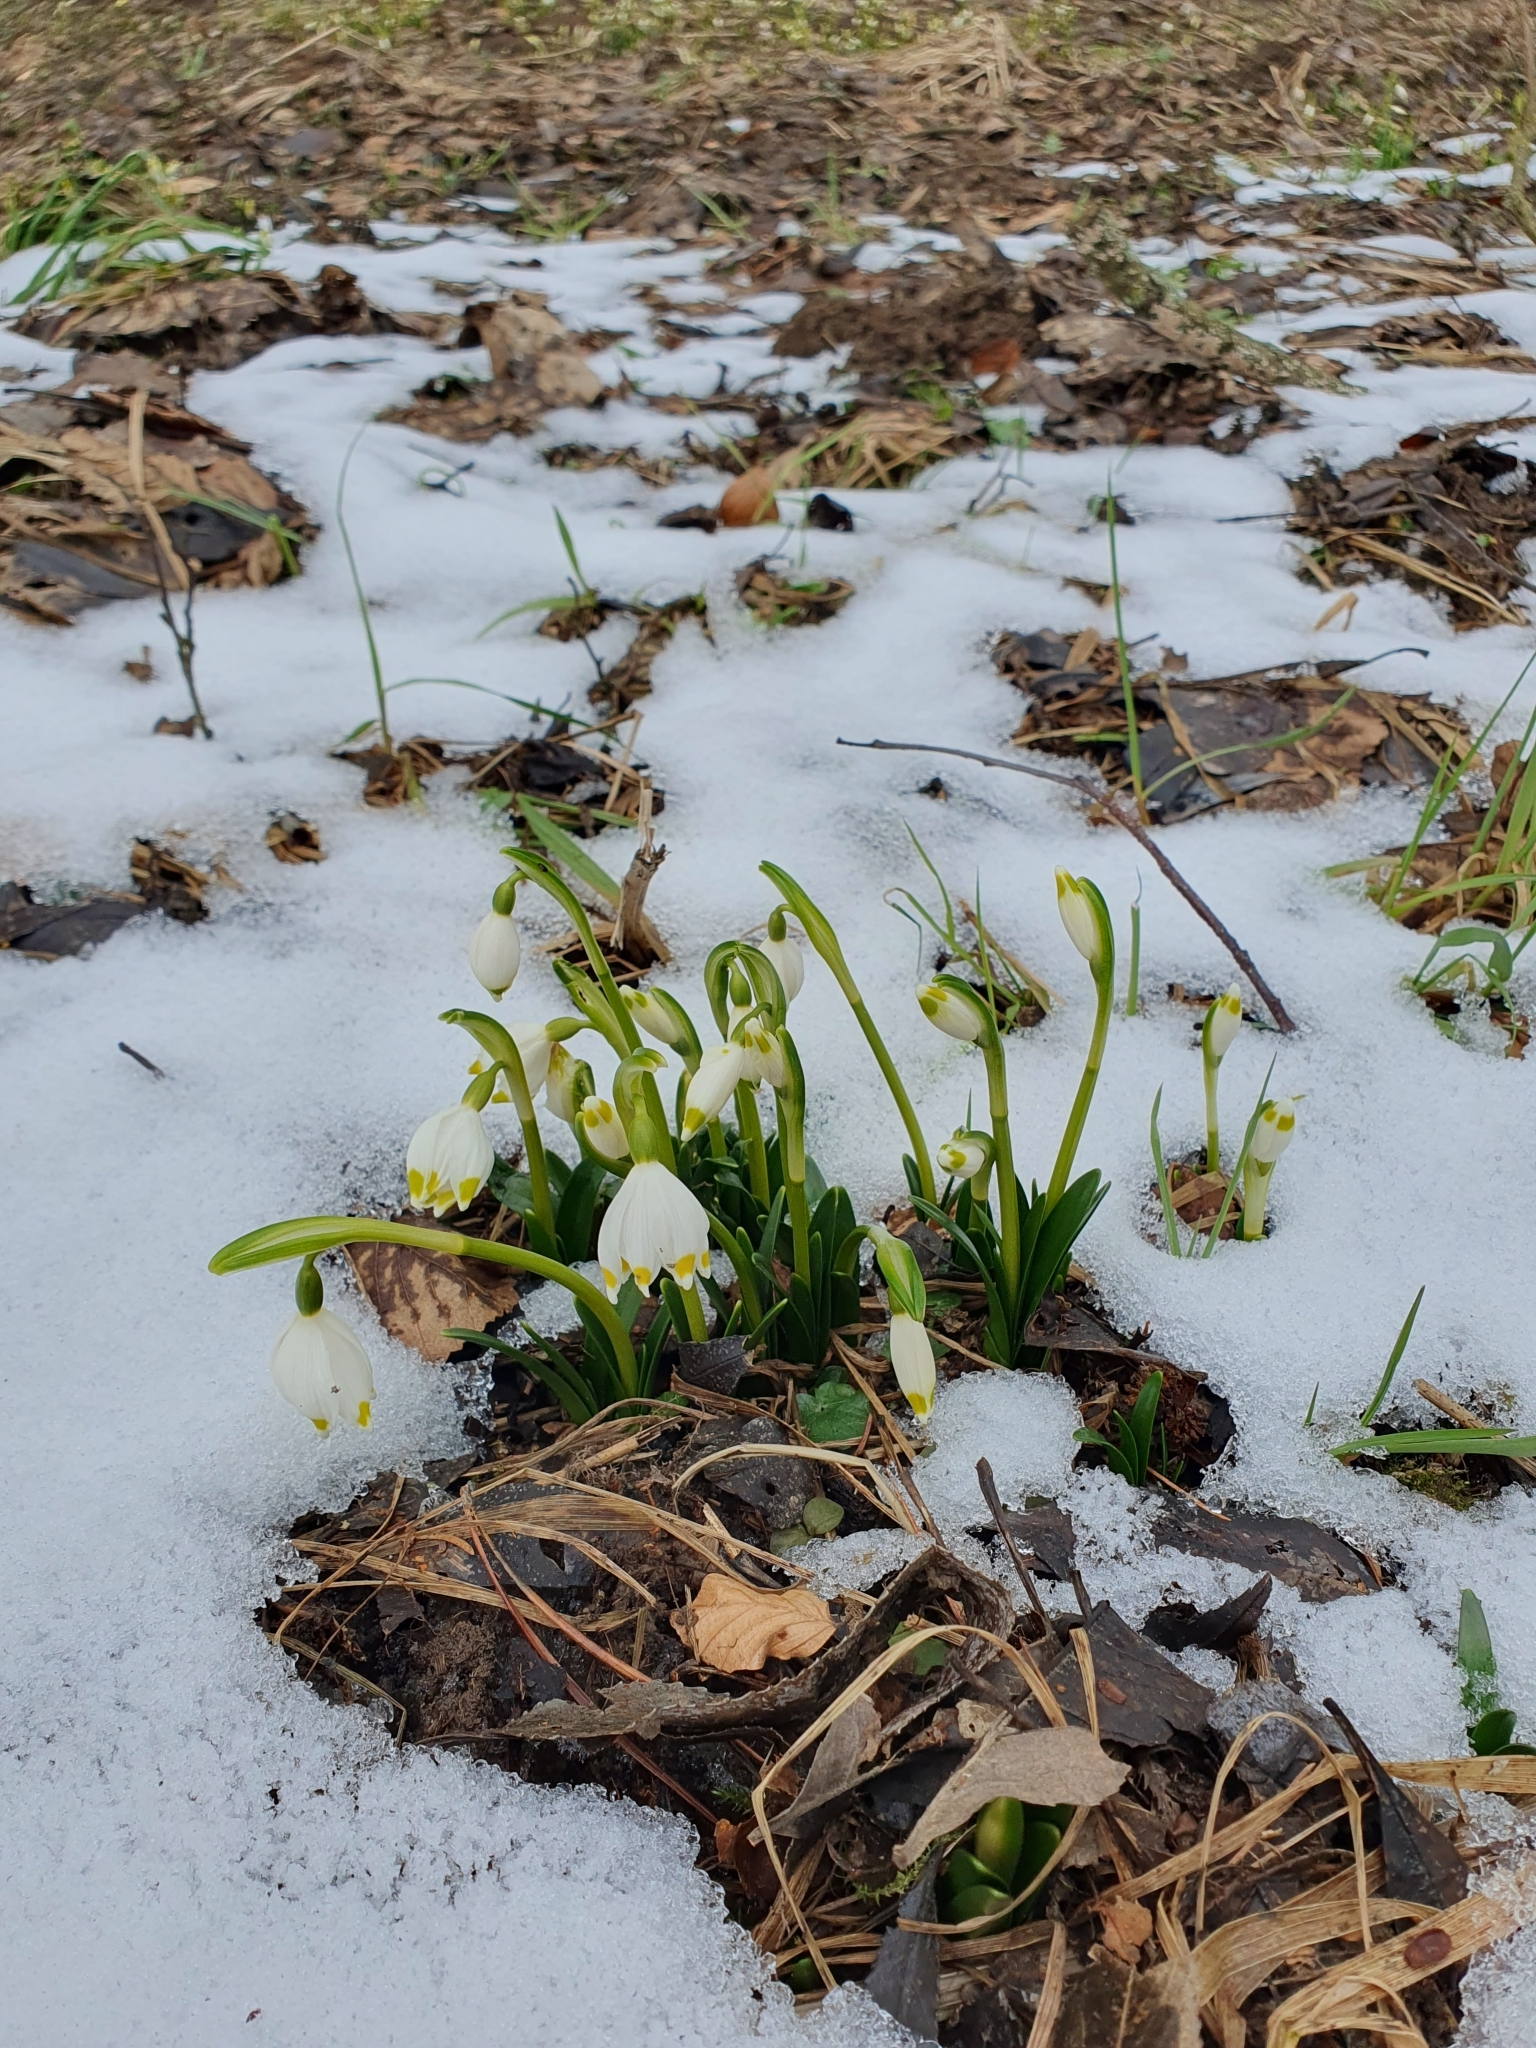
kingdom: Plantae
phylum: Tracheophyta
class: Liliopsida
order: Asparagales
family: Amaryllidaceae
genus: Leucojum
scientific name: Leucojum vernum
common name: Spring snowflake
